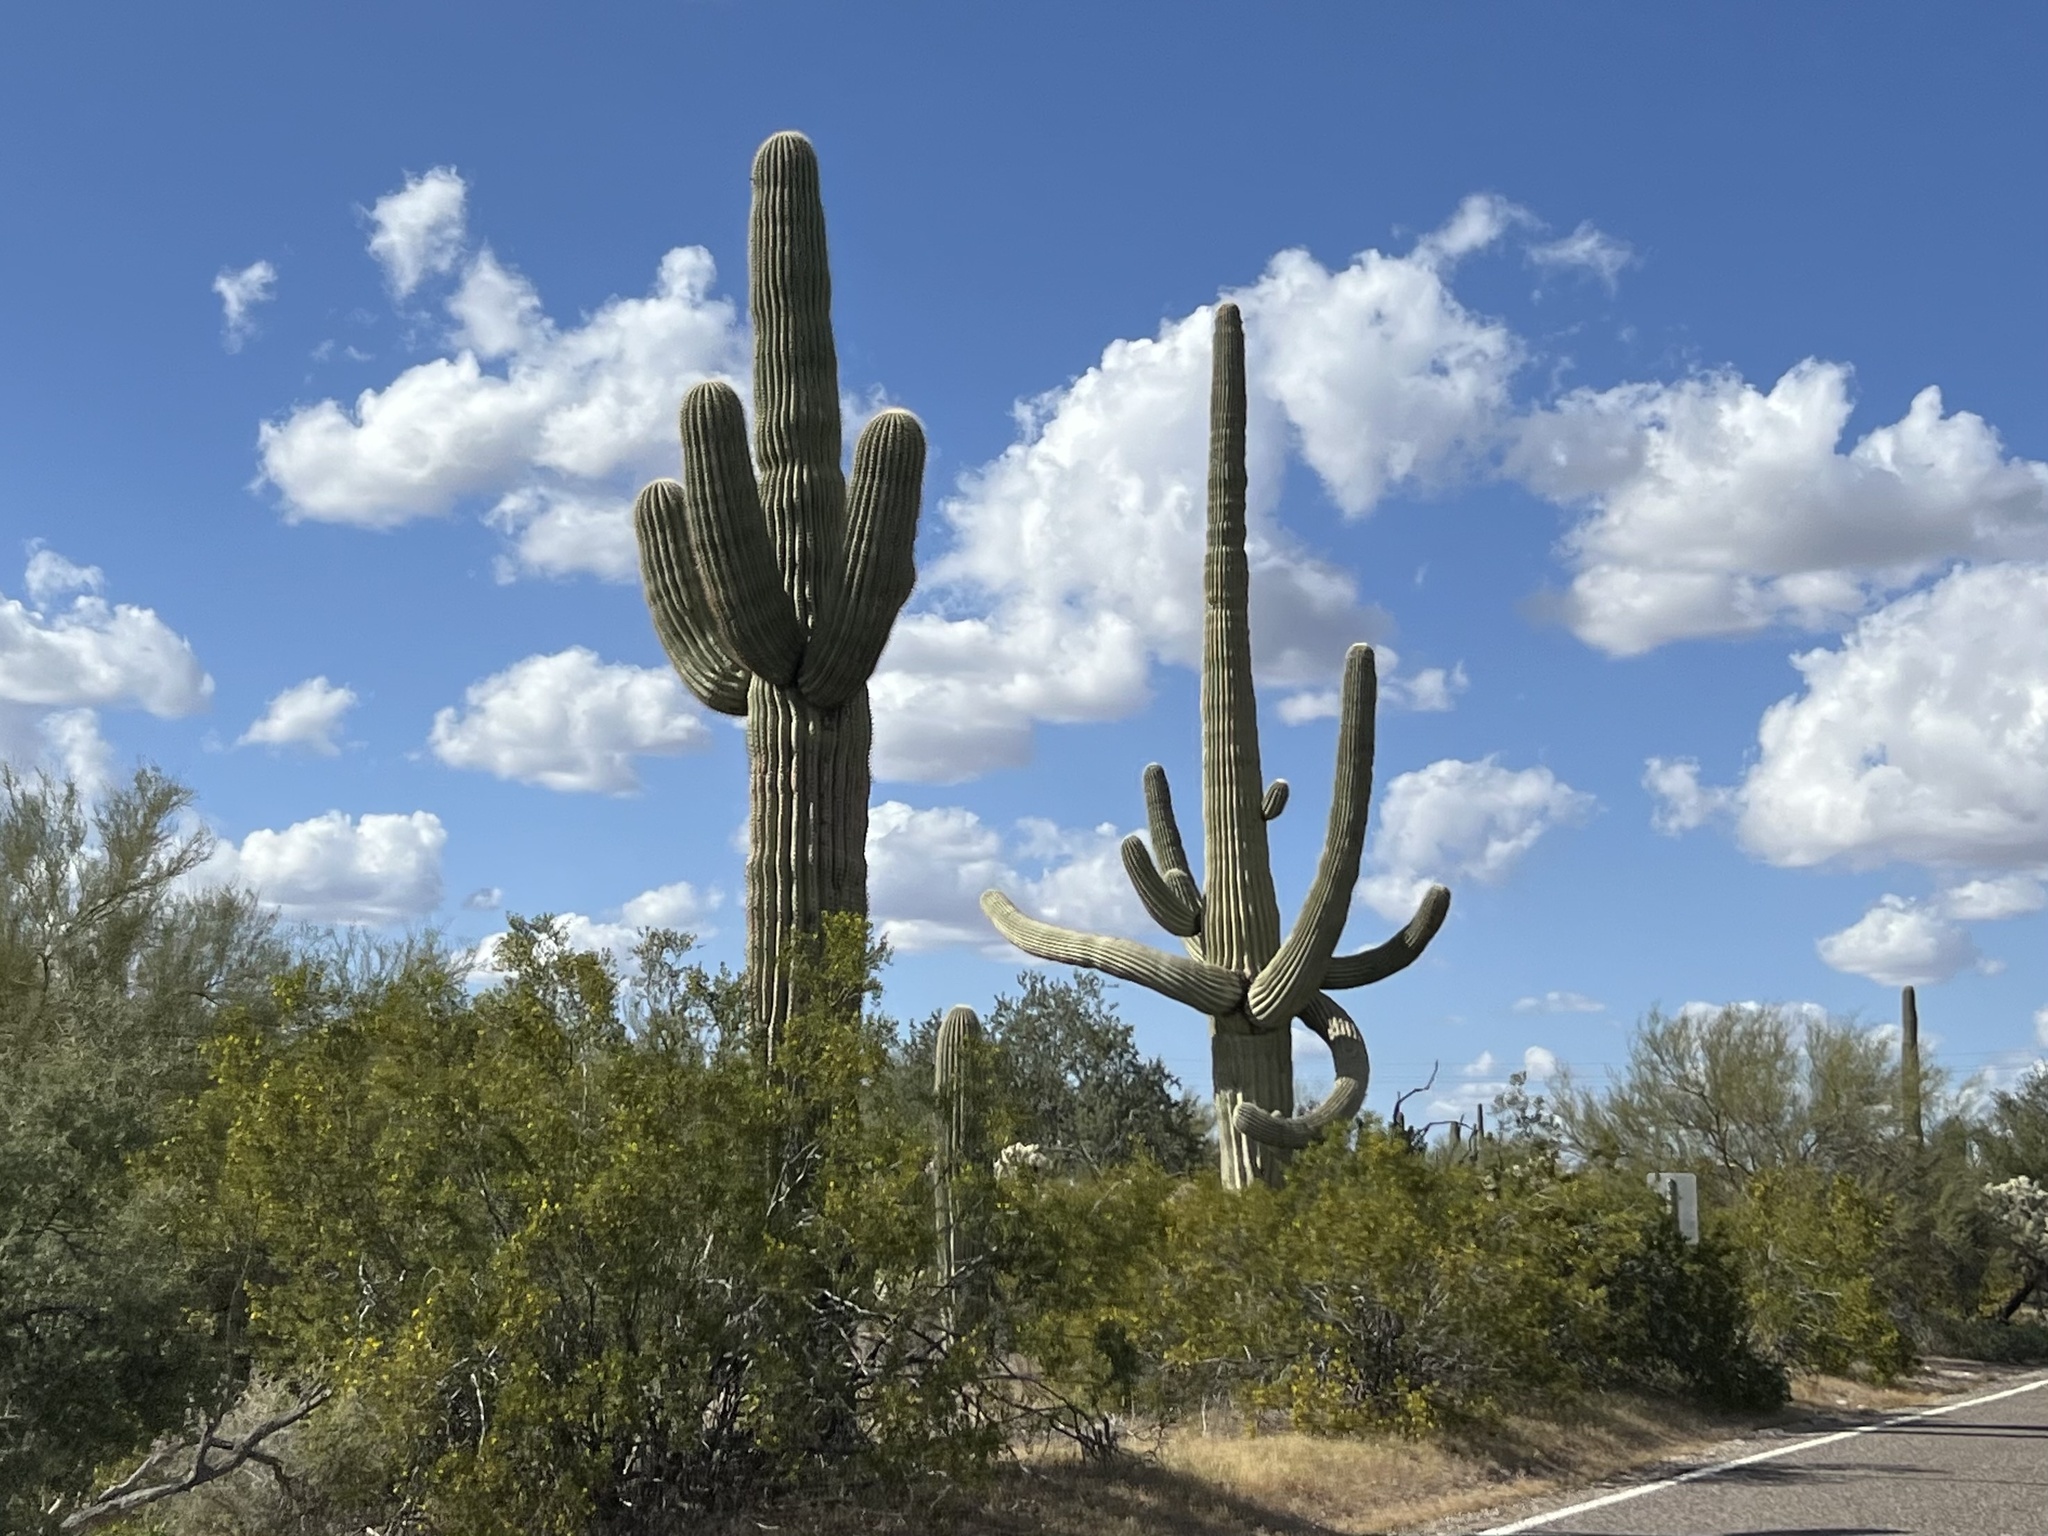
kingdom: Plantae
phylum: Tracheophyta
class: Magnoliopsida
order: Caryophyllales
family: Cactaceae
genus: Carnegiea
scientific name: Carnegiea gigantea
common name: Saguaro
